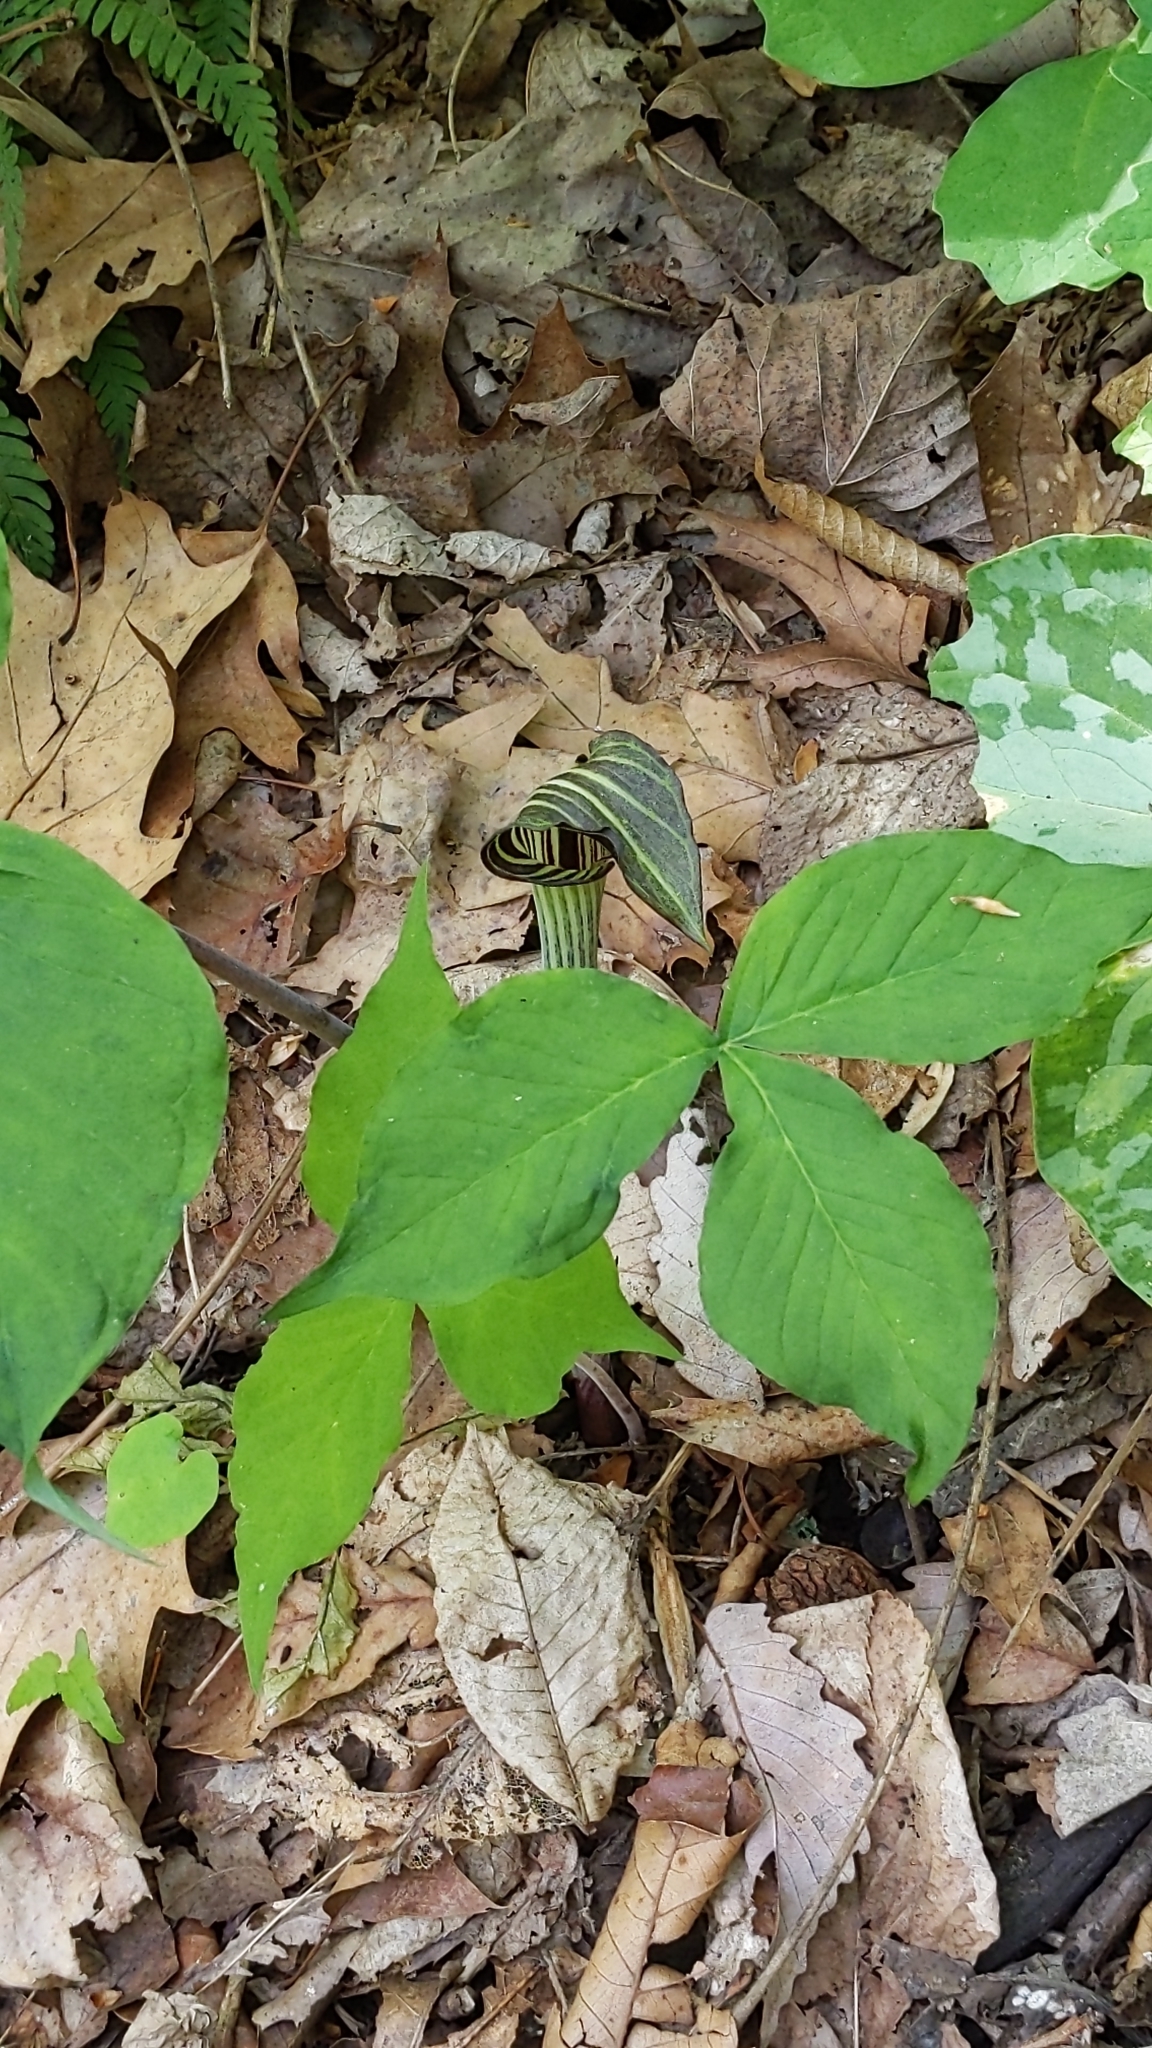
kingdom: Plantae
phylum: Tracheophyta
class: Liliopsida
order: Alismatales
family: Araceae
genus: Arisaema
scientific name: Arisaema triphyllum
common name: Jack-in-the-pulpit
